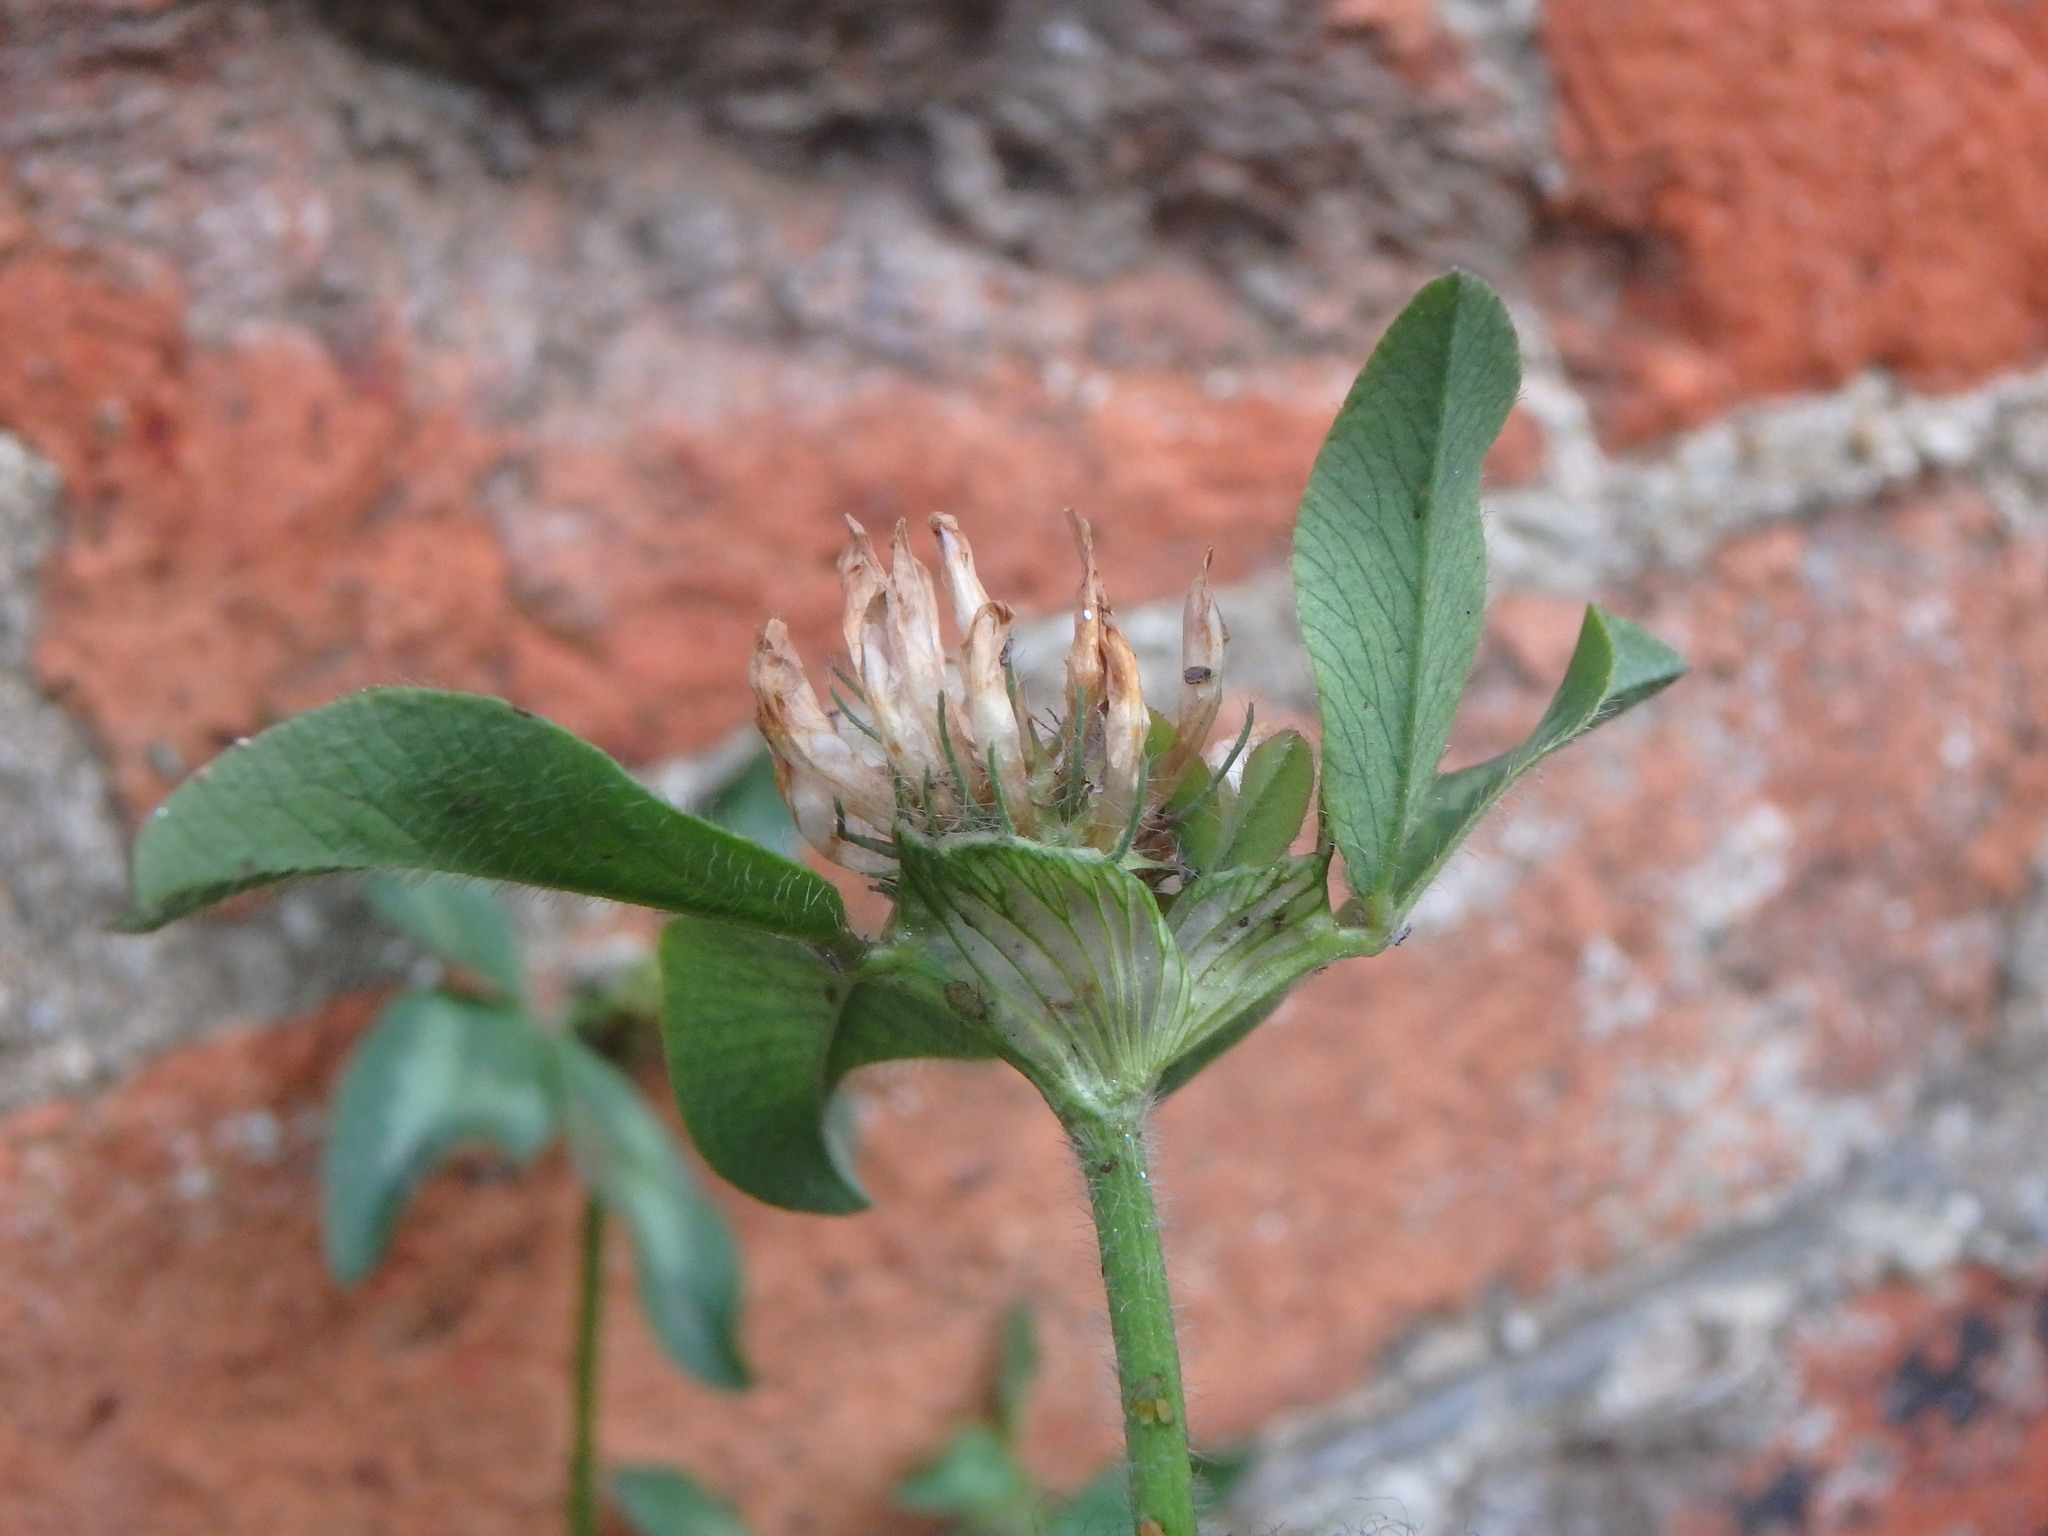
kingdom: Plantae
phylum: Tracheophyta
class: Magnoliopsida
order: Fabales
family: Fabaceae
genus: Trifolium
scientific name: Trifolium pratense
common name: Red clover
